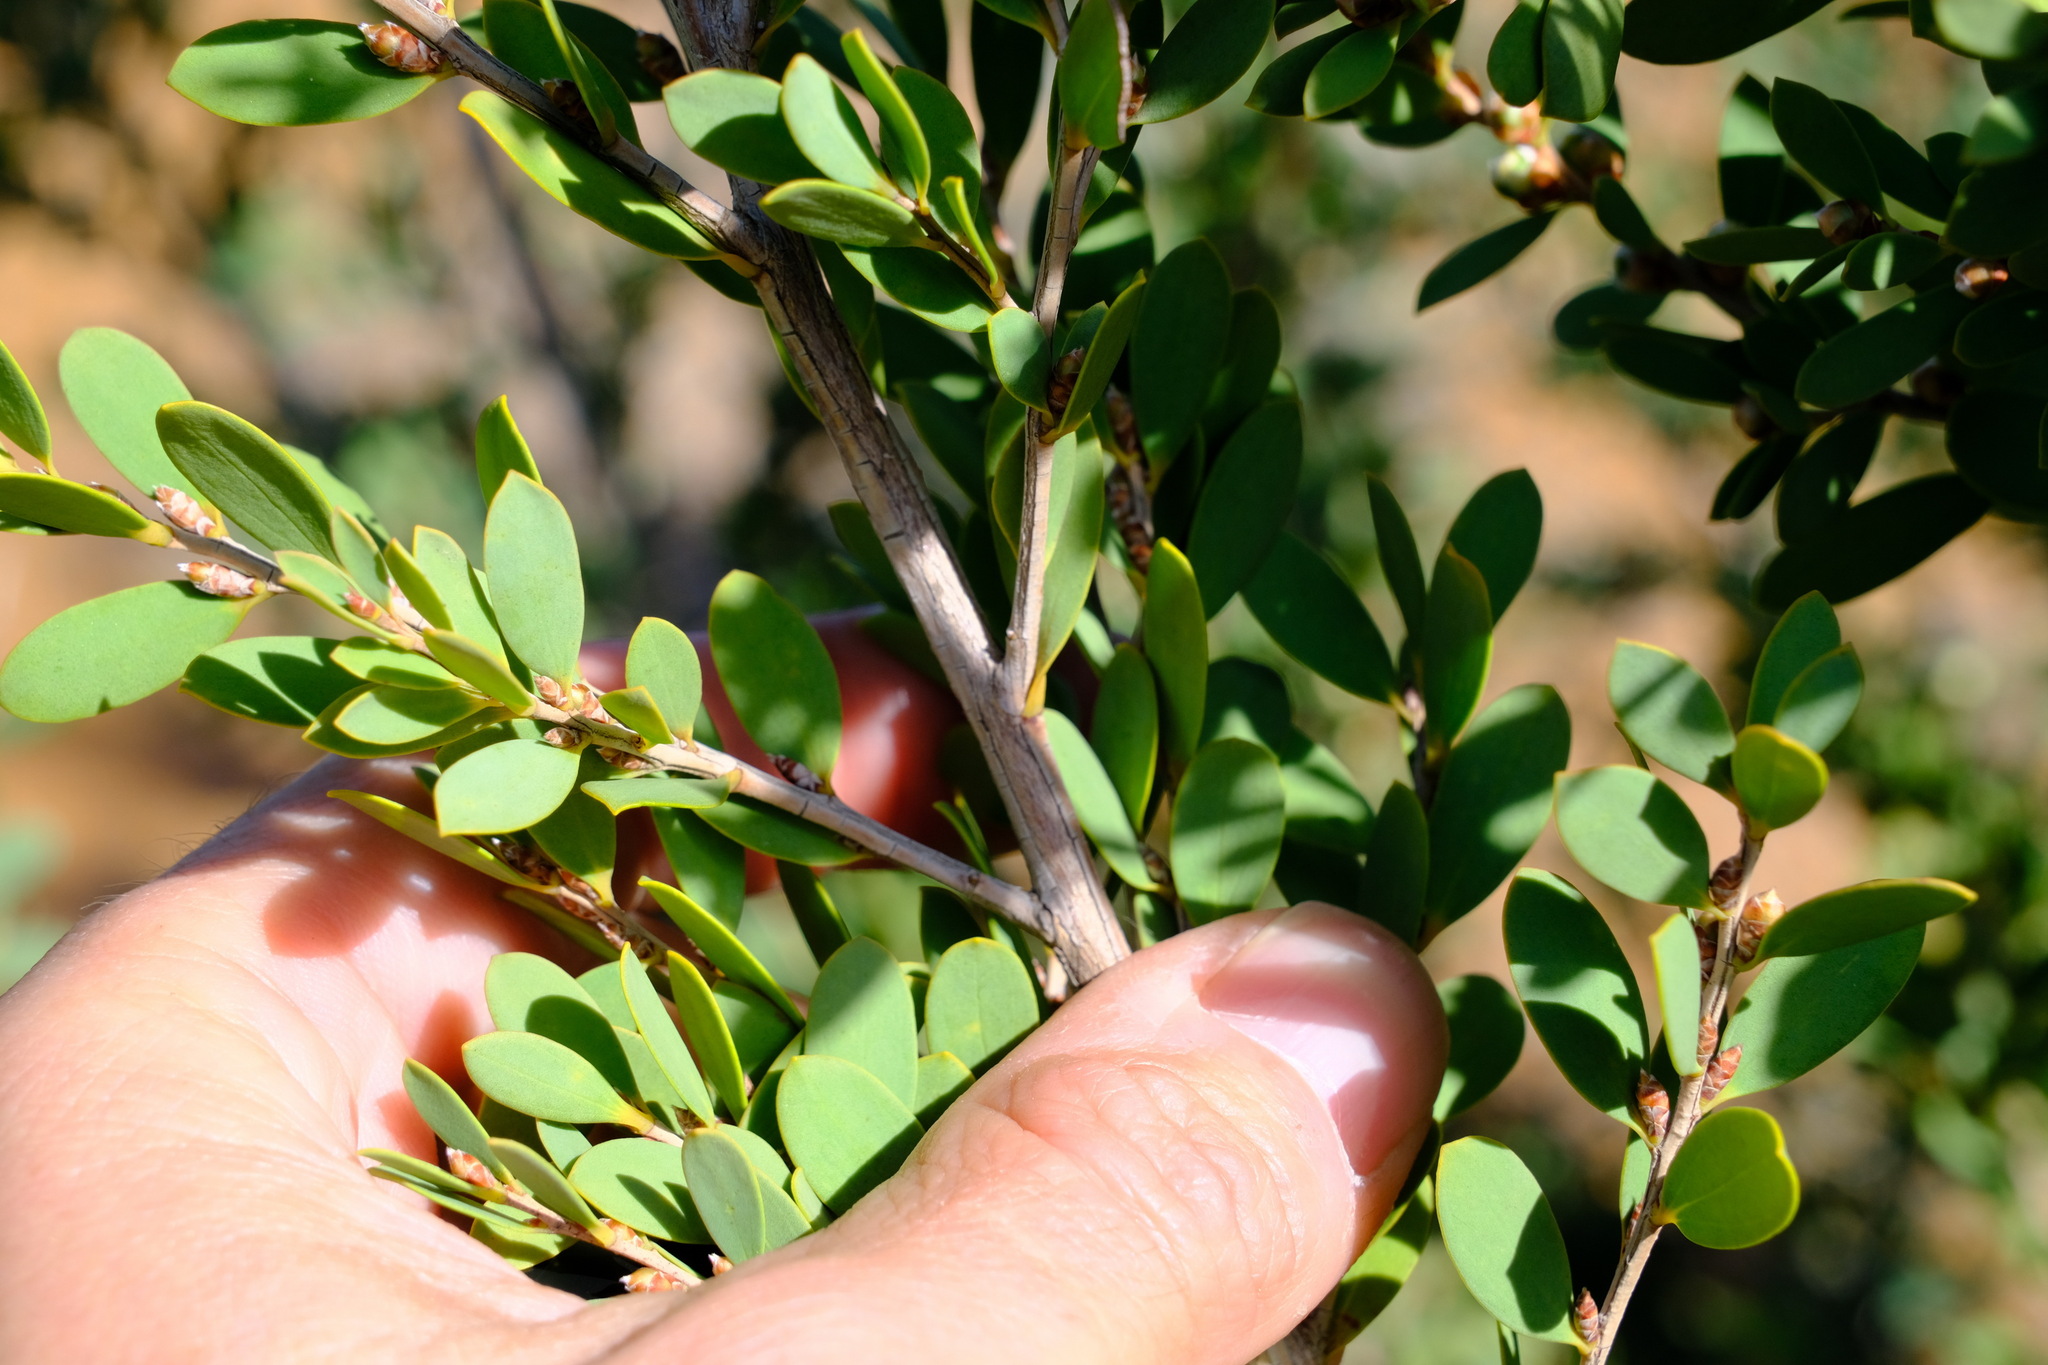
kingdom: Plantae
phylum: Tracheophyta
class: Magnoliopsida
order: Myrtales
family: Myrtaceae
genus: Leptospermum
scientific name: Leptospermum laevigatum
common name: Australian teatree
